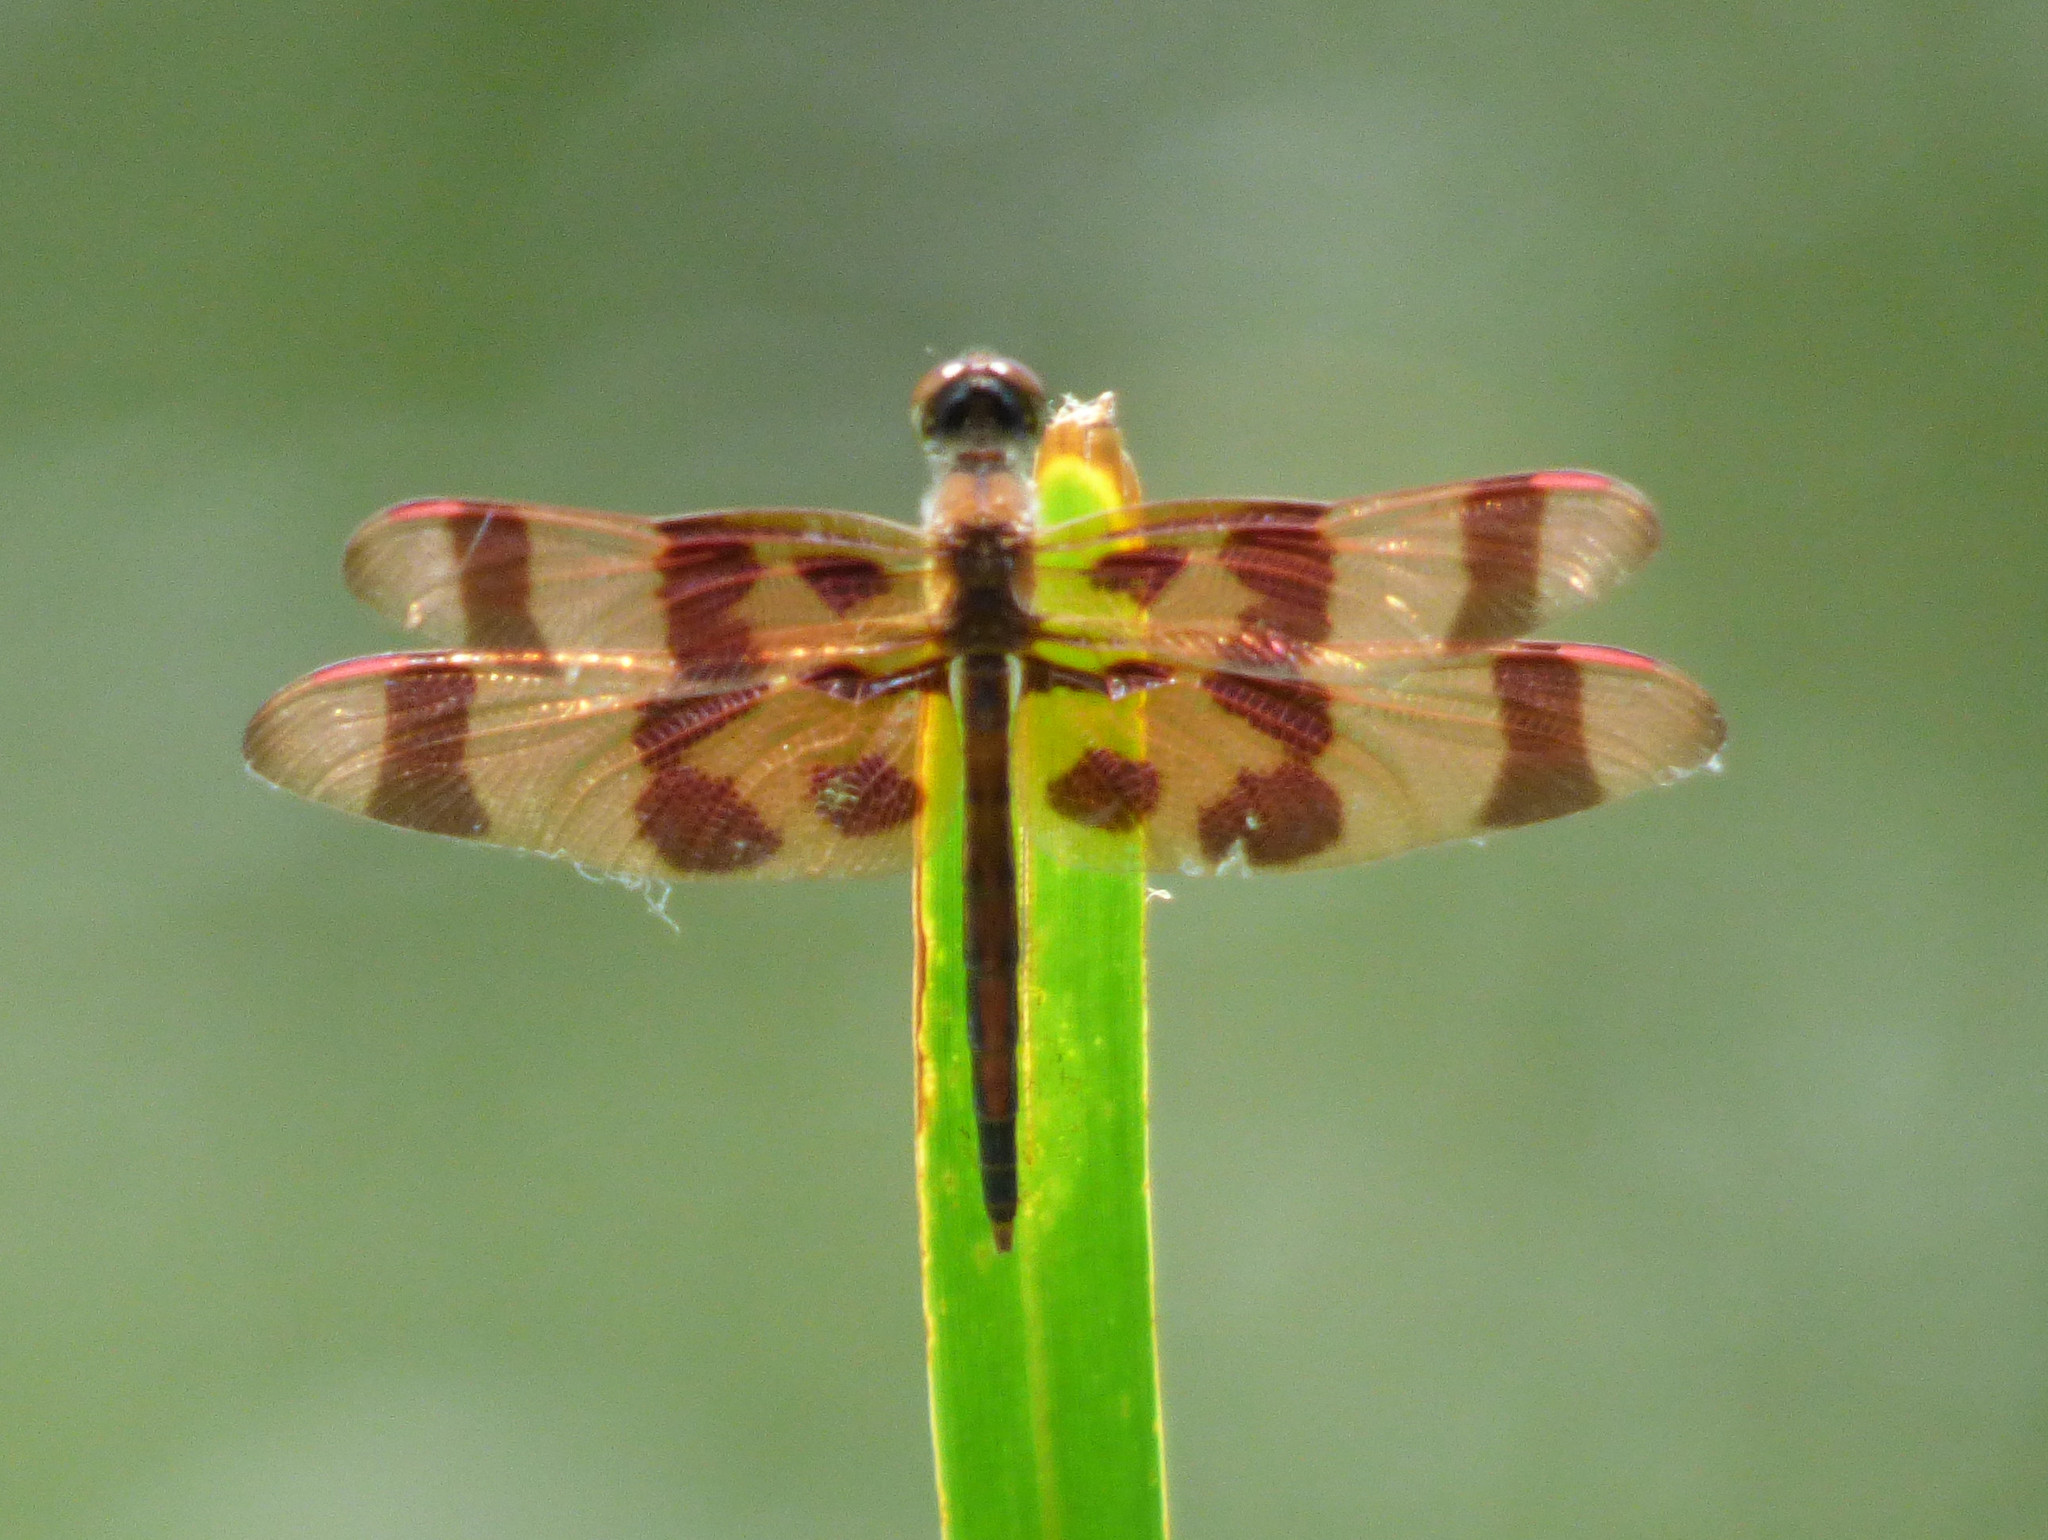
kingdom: Animalia
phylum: Arthropoda
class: Insecta
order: Odonata
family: Libellulidae
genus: Celithemis
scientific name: Celithemis eponina
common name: Halloween pennant
